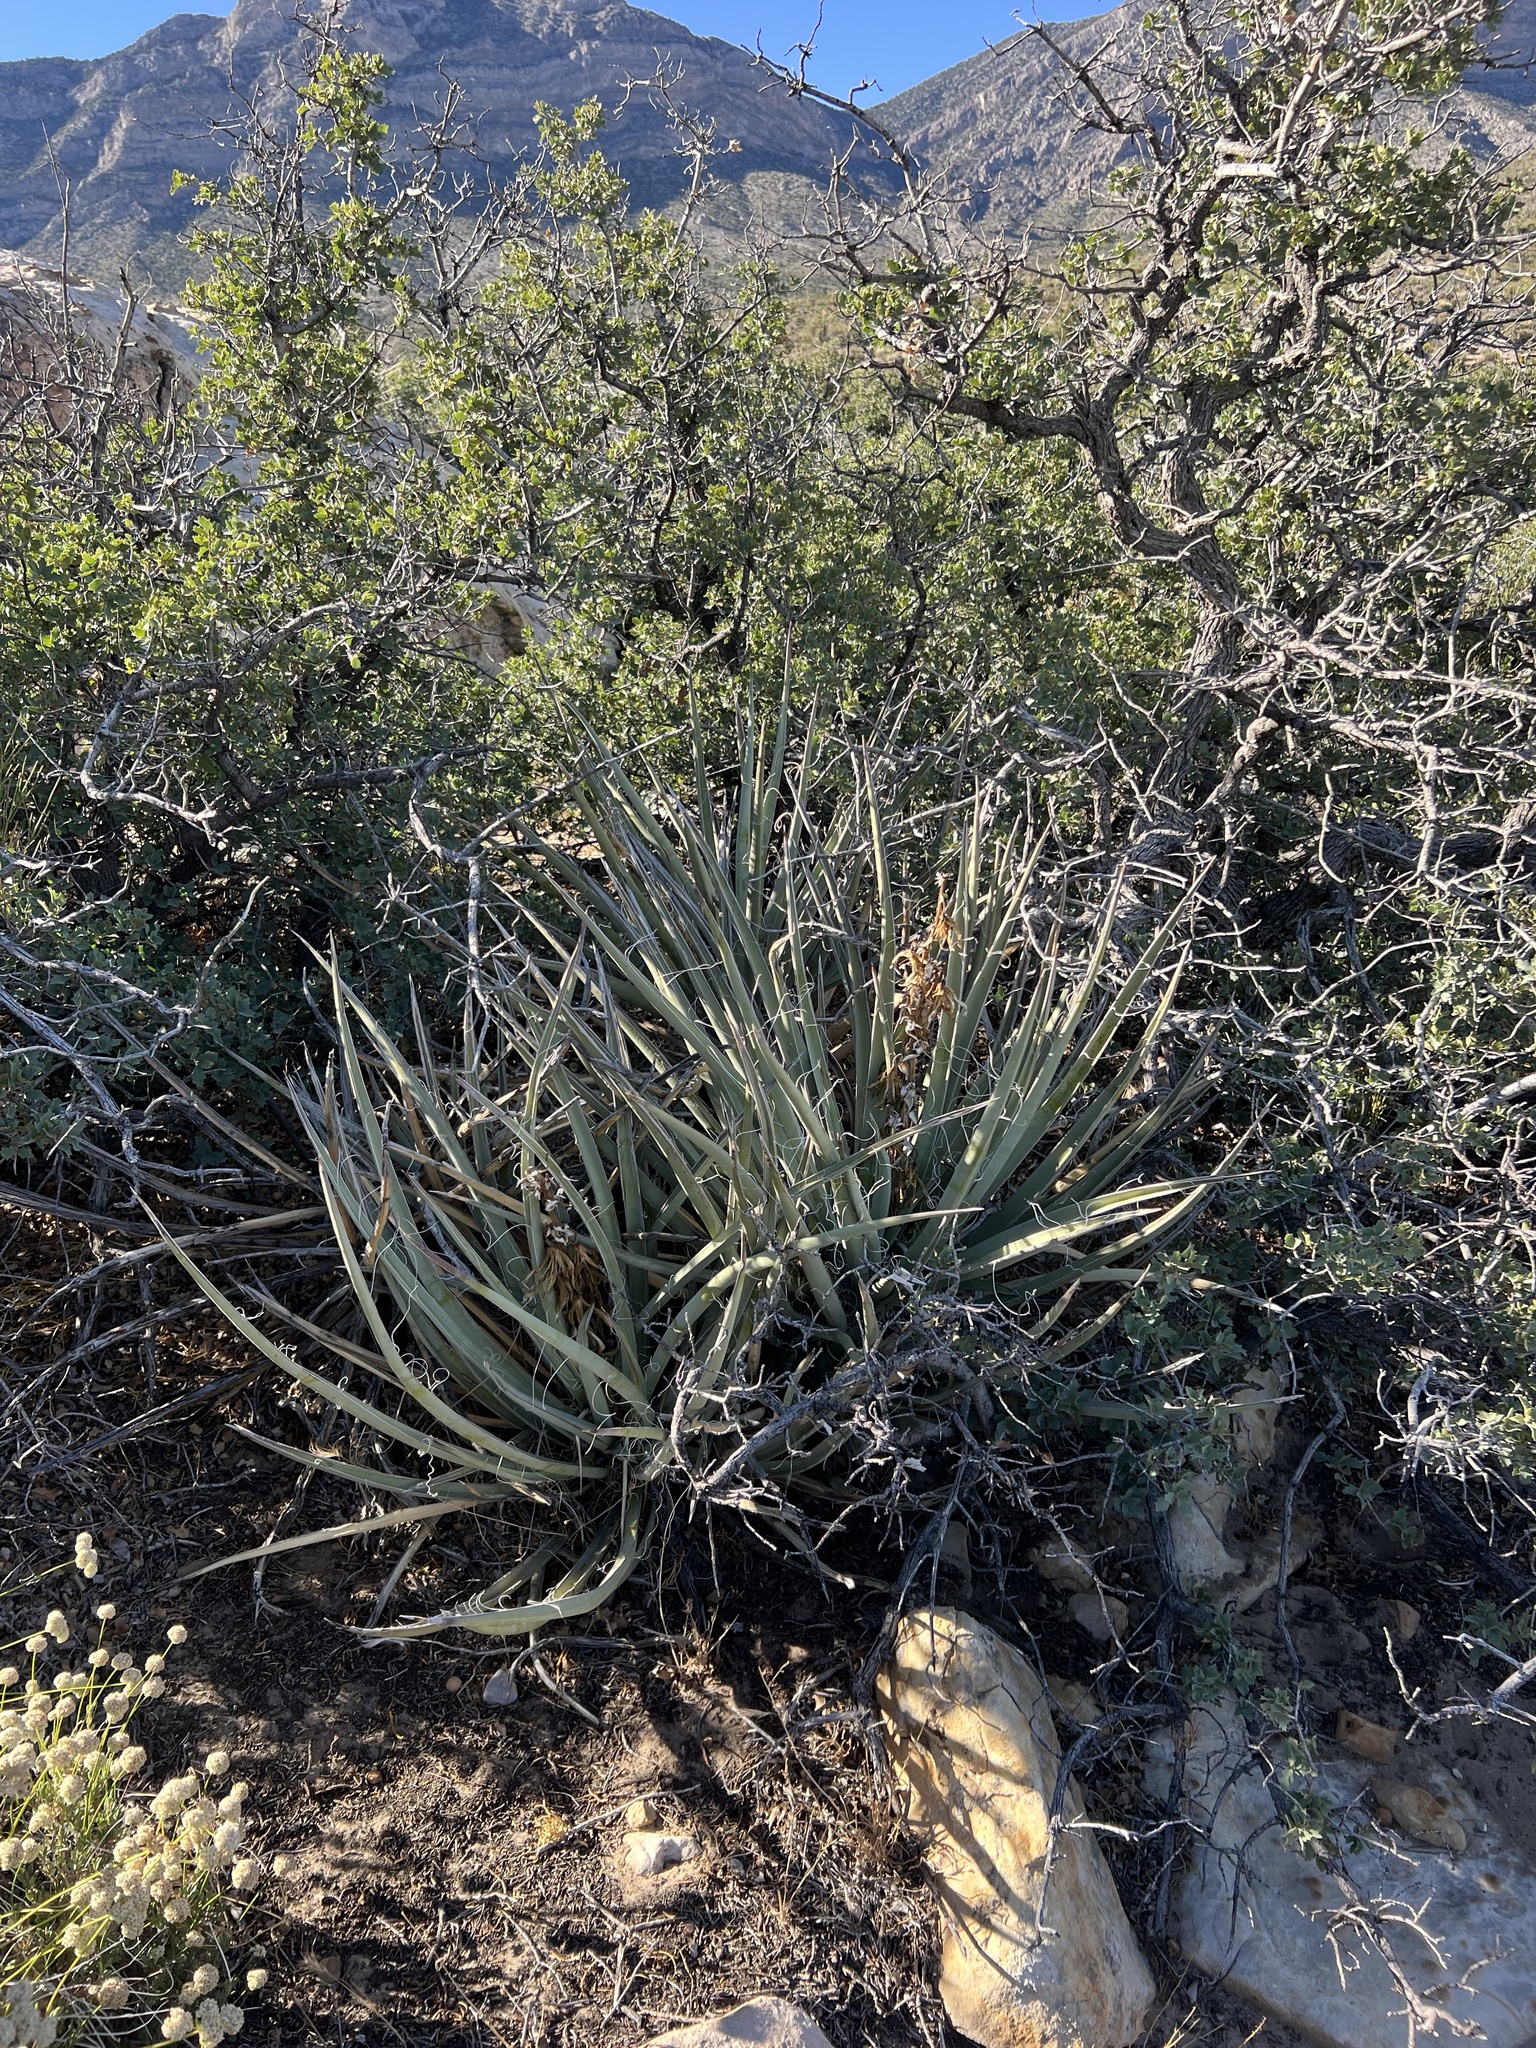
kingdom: Plantae
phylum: Tracheophyta
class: Liliopsida
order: Asparagales
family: Asparagaceae
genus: Yucca
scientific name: Yucca baccata
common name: Banana yucca
